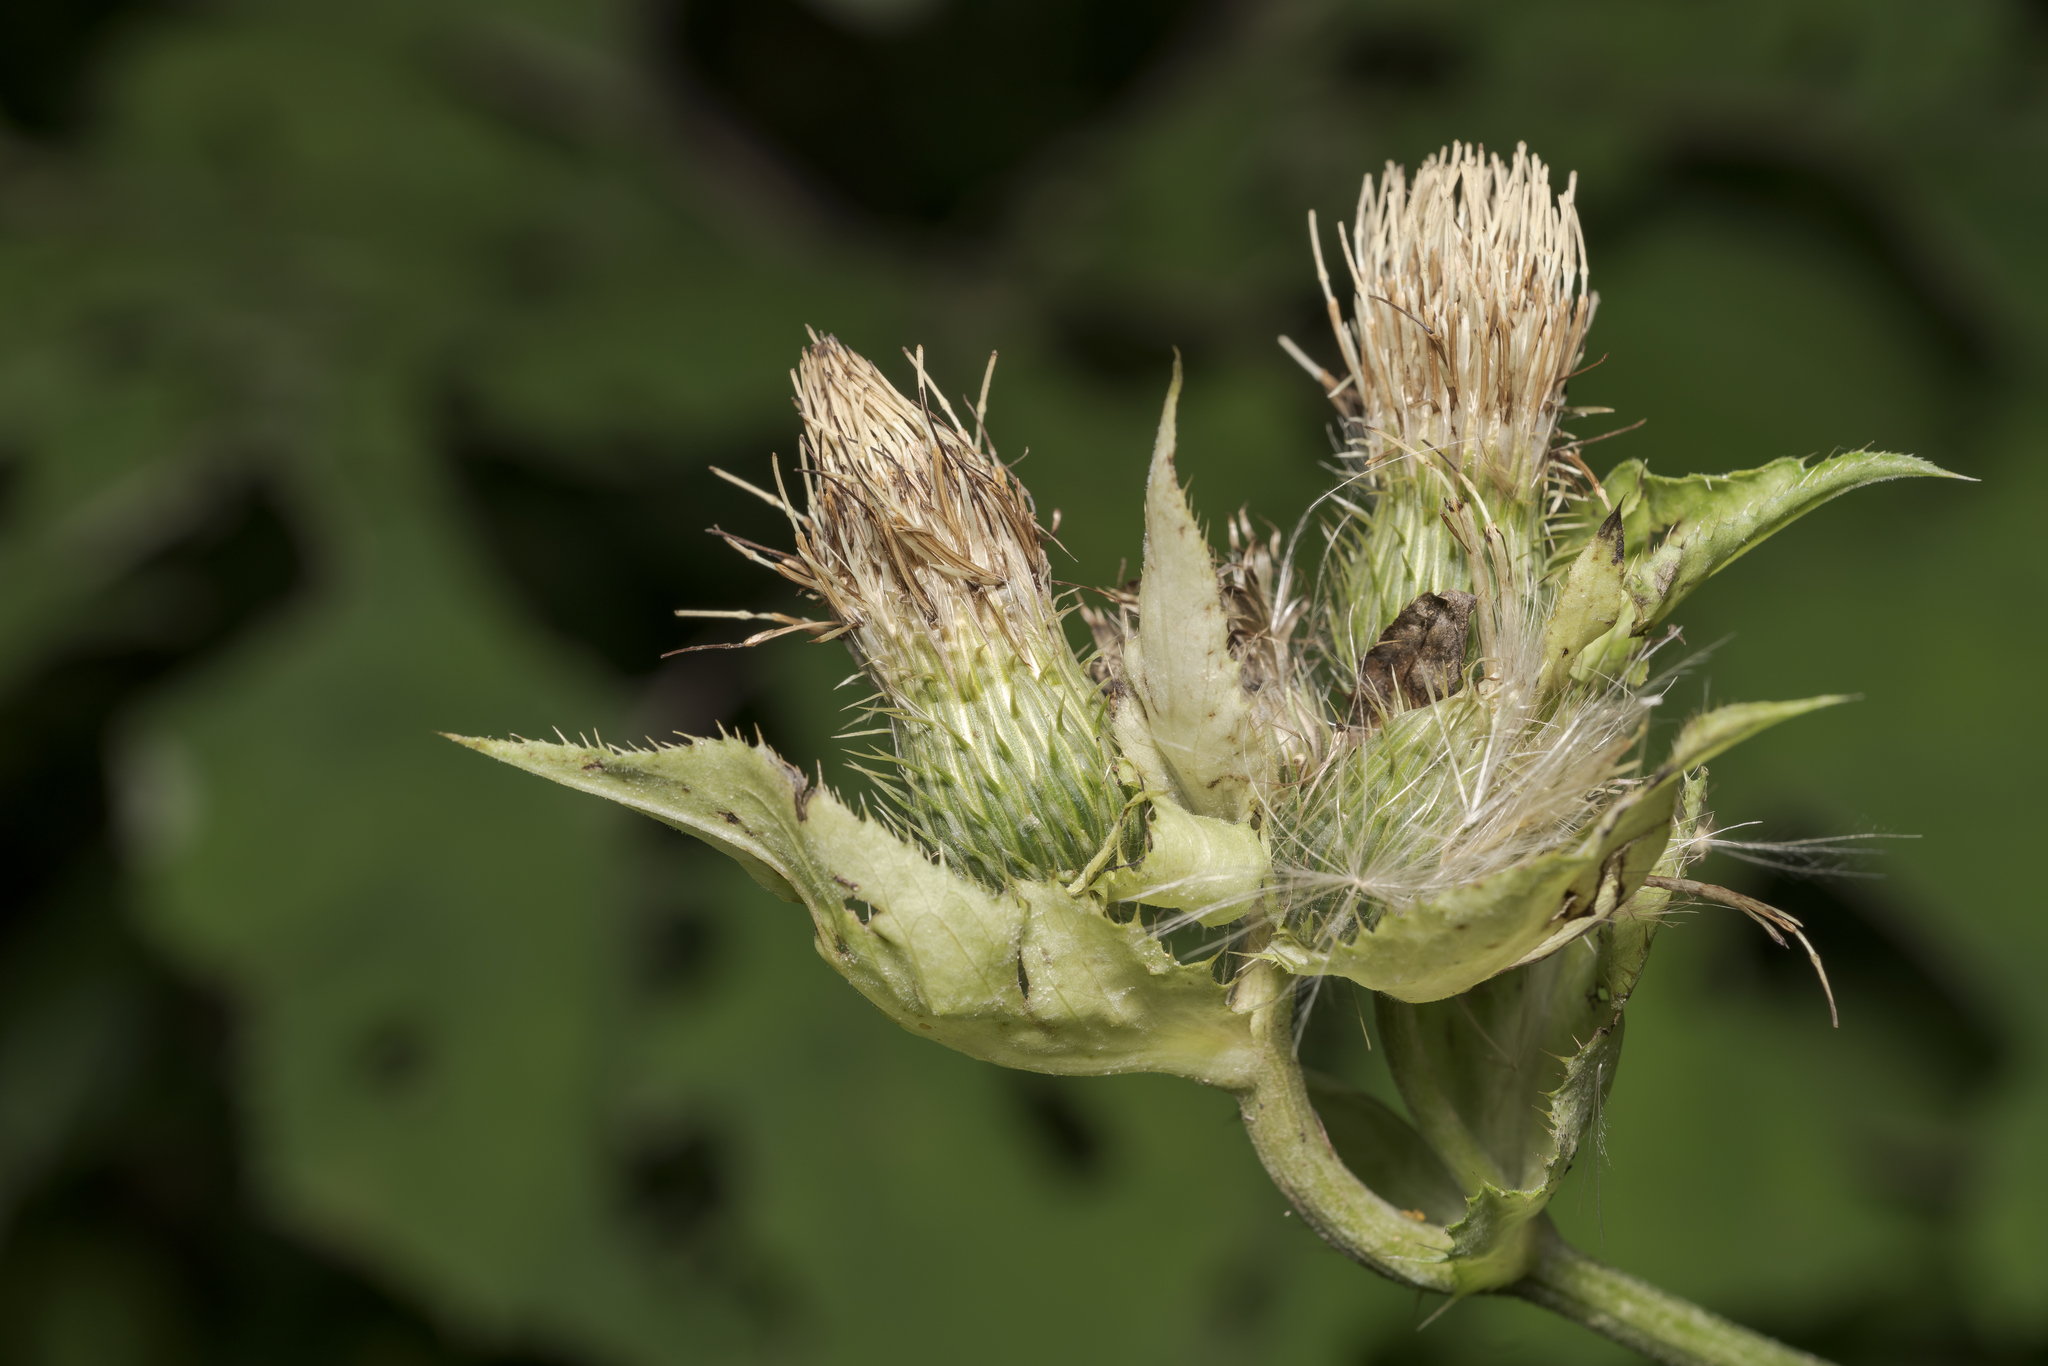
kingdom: Plantae
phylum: Tracheophyta
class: Magnoliopsida
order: Asterales
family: Asteraceae
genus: Cirsium
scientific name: Cirsium oleraceum
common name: Cabbage thistle
